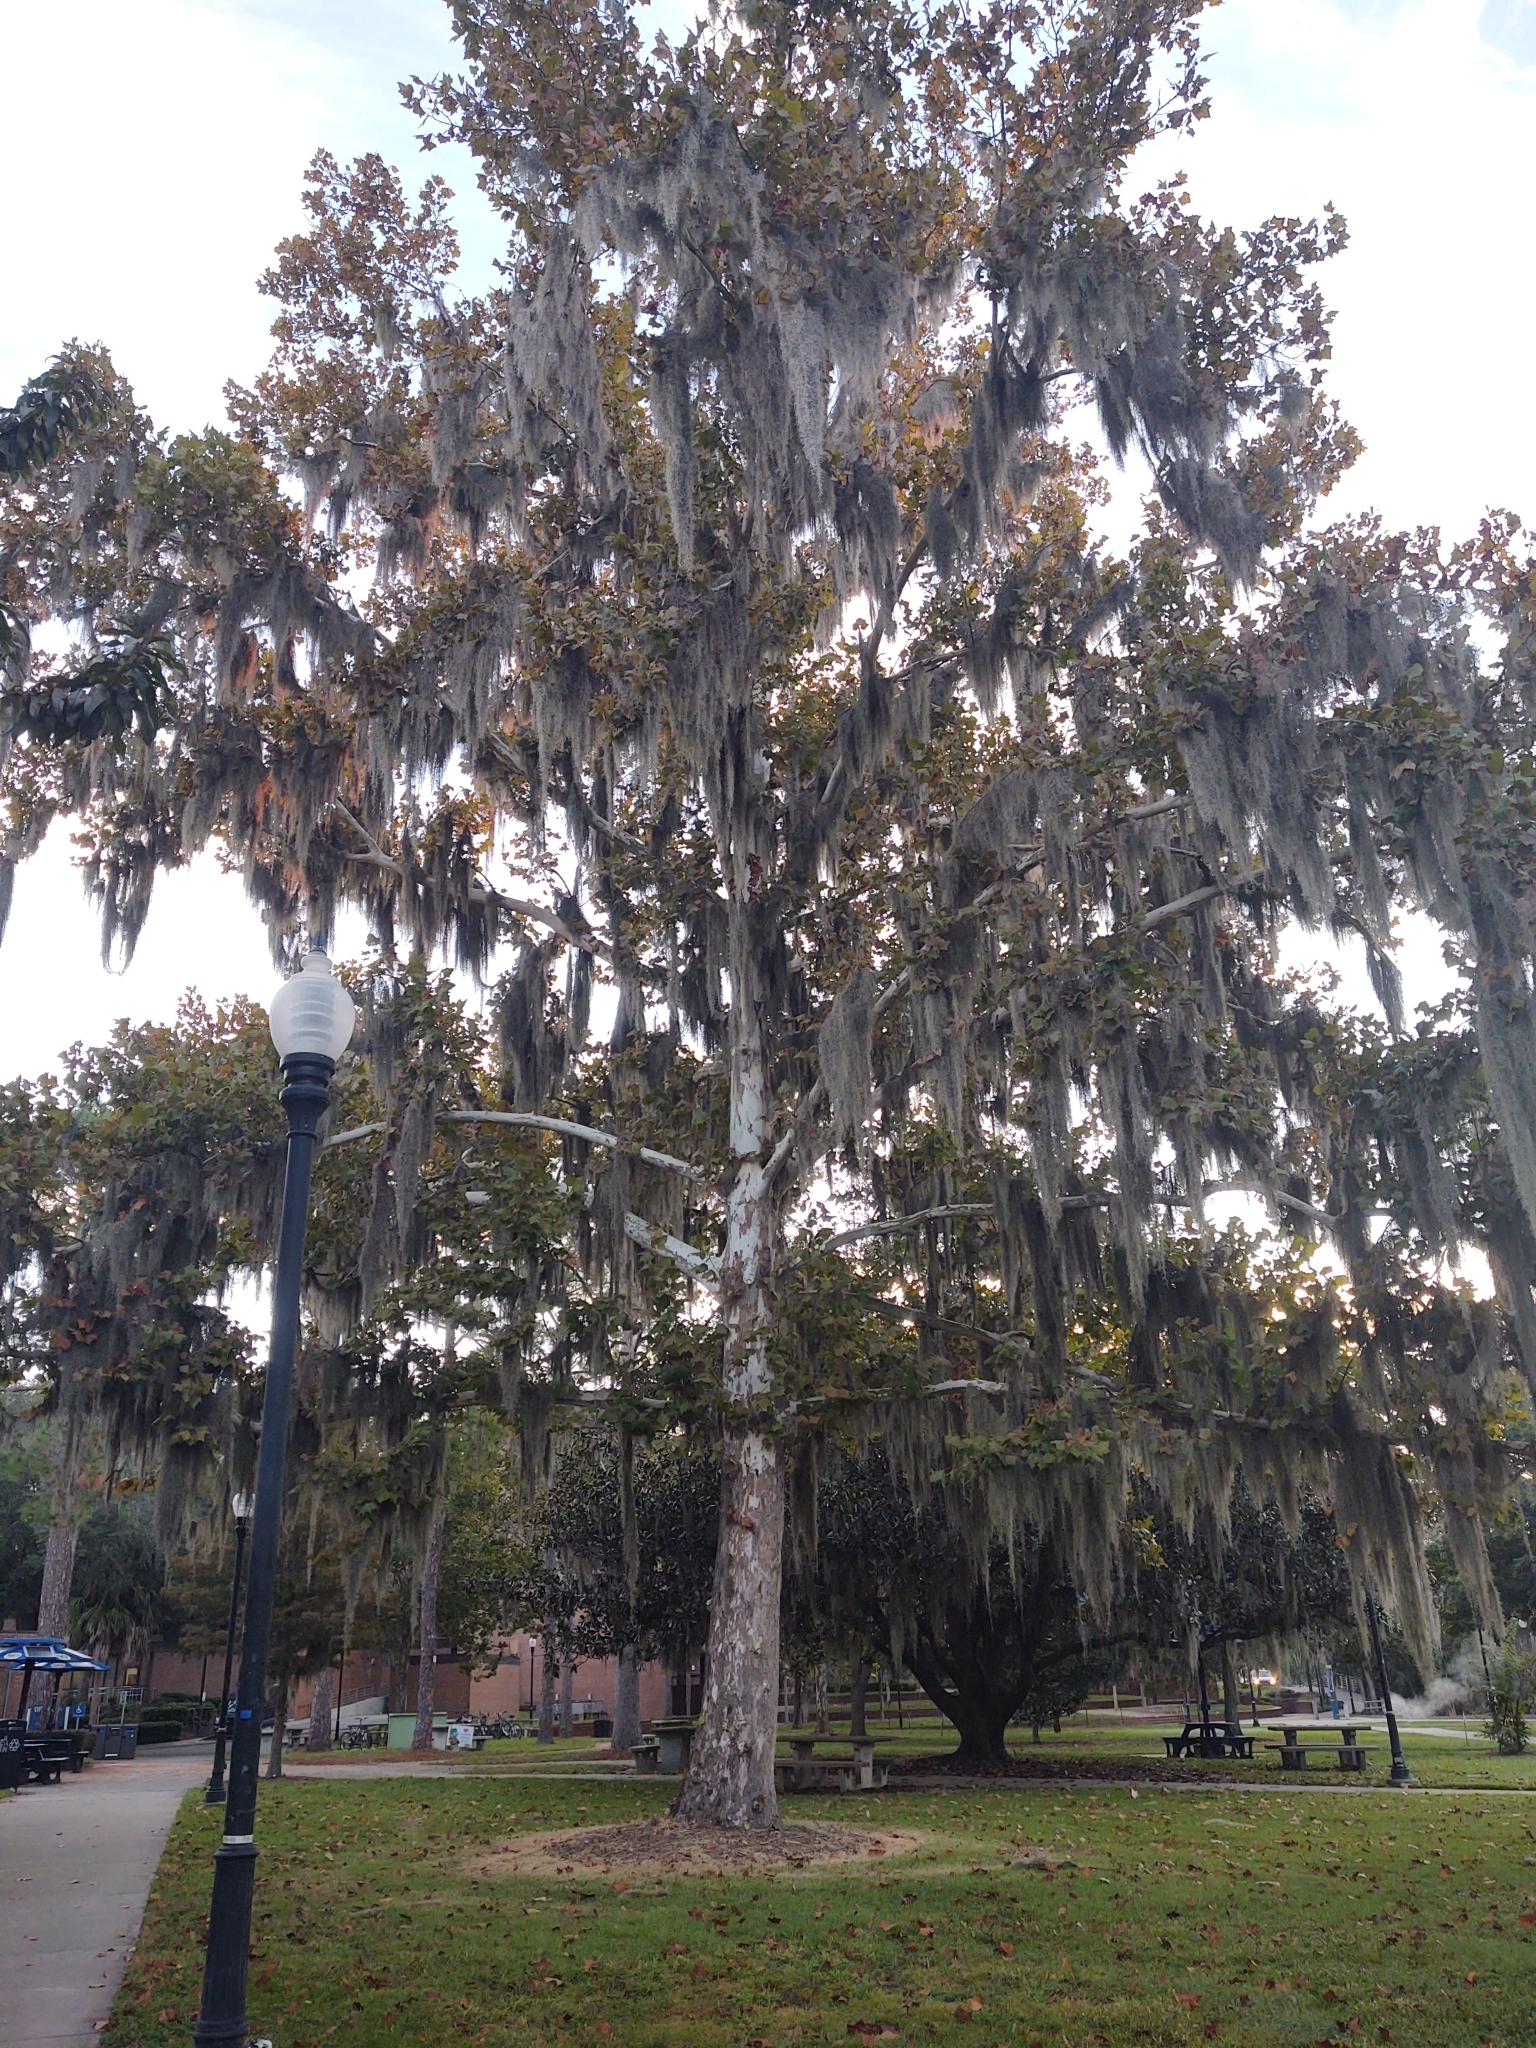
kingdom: Plantae
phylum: Tracheophyta
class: Magnoliopsida
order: Proteales
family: Platanaceae
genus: Platanus
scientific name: Platanus occidentalis
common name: American sycamore
